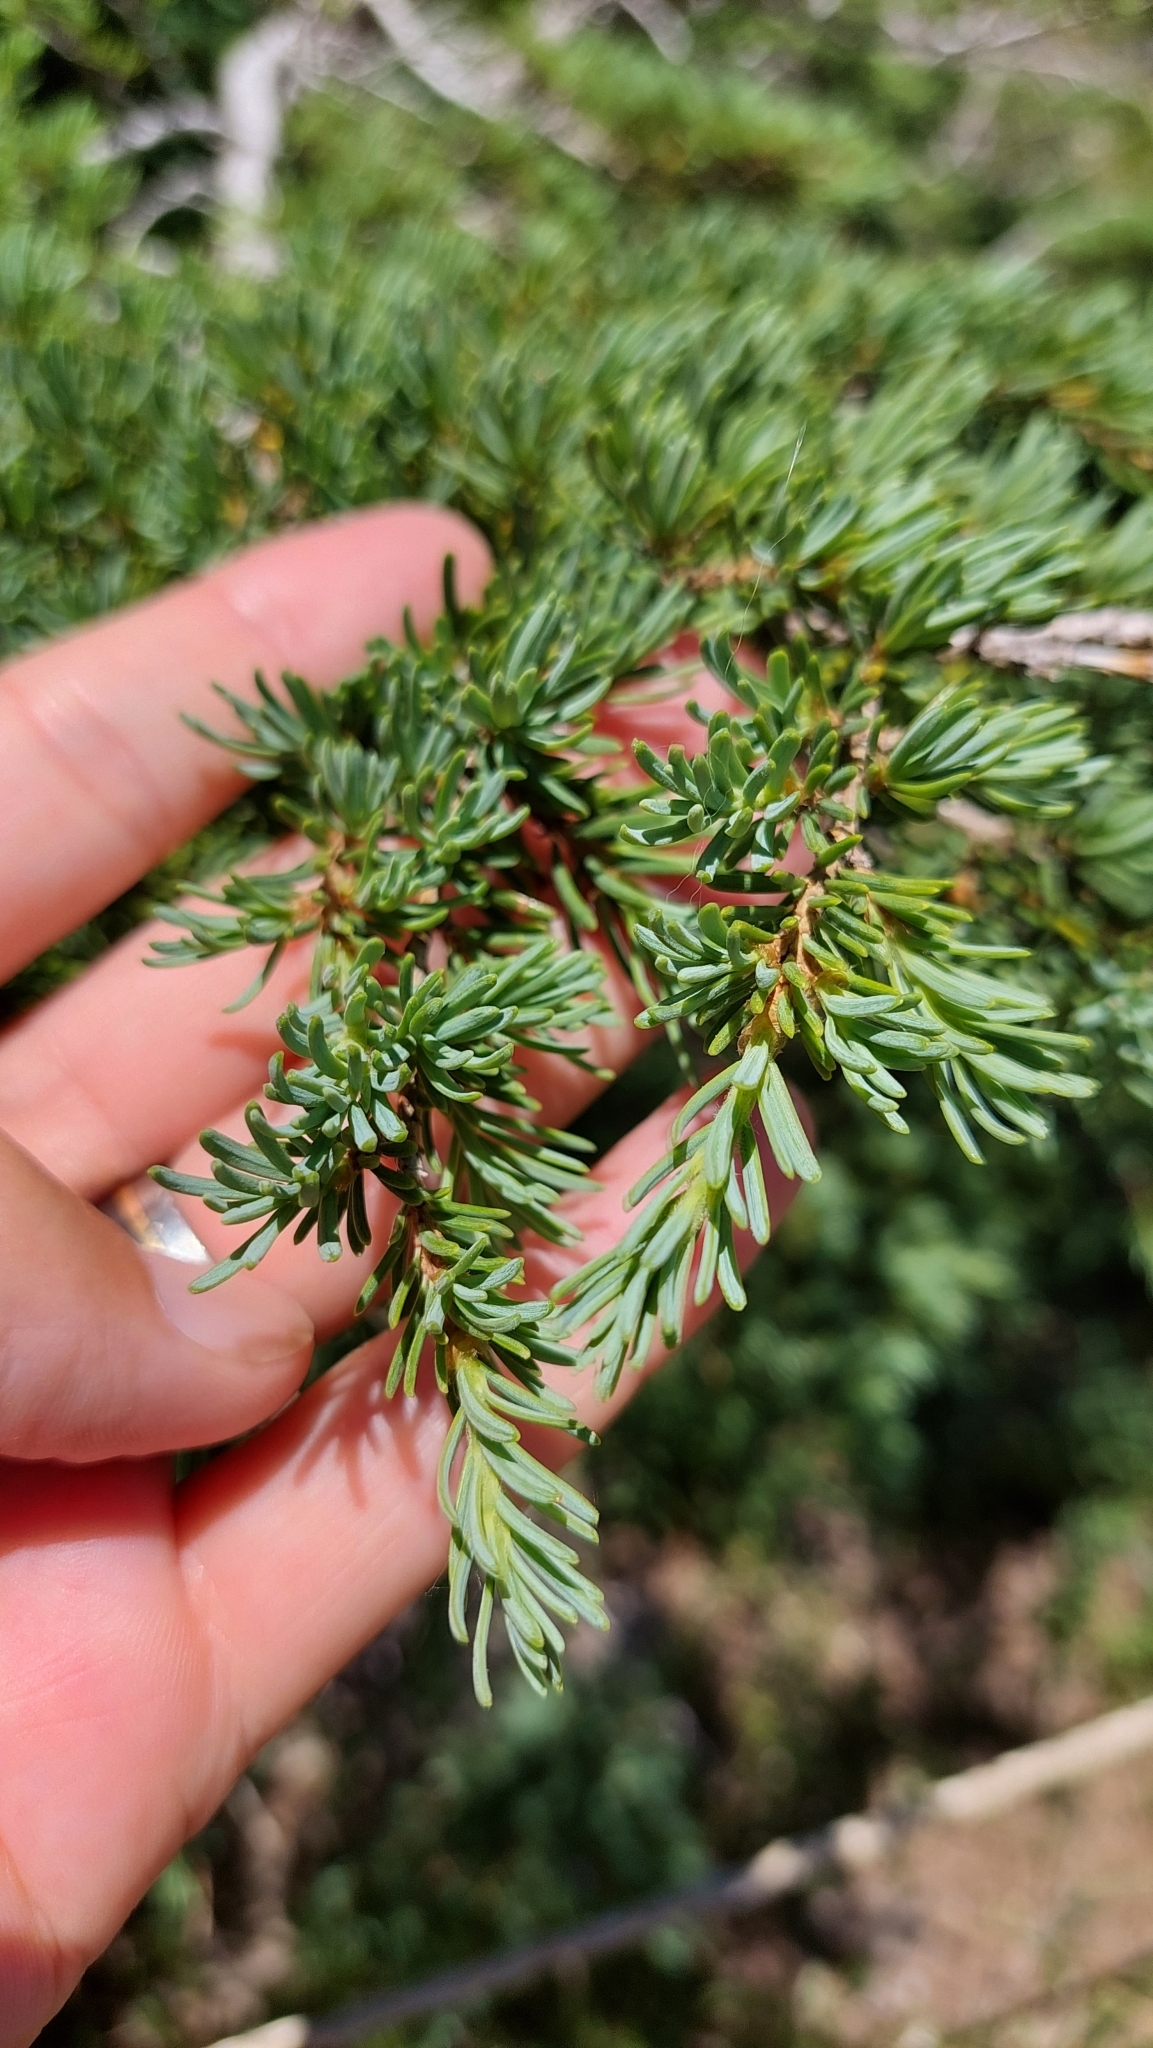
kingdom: Plantae
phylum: Tracheophyta
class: Pinopsida
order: Pinales
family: Pinaceae
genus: Tsuga
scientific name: Tsuga mertensiana
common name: Mountain hemlock
